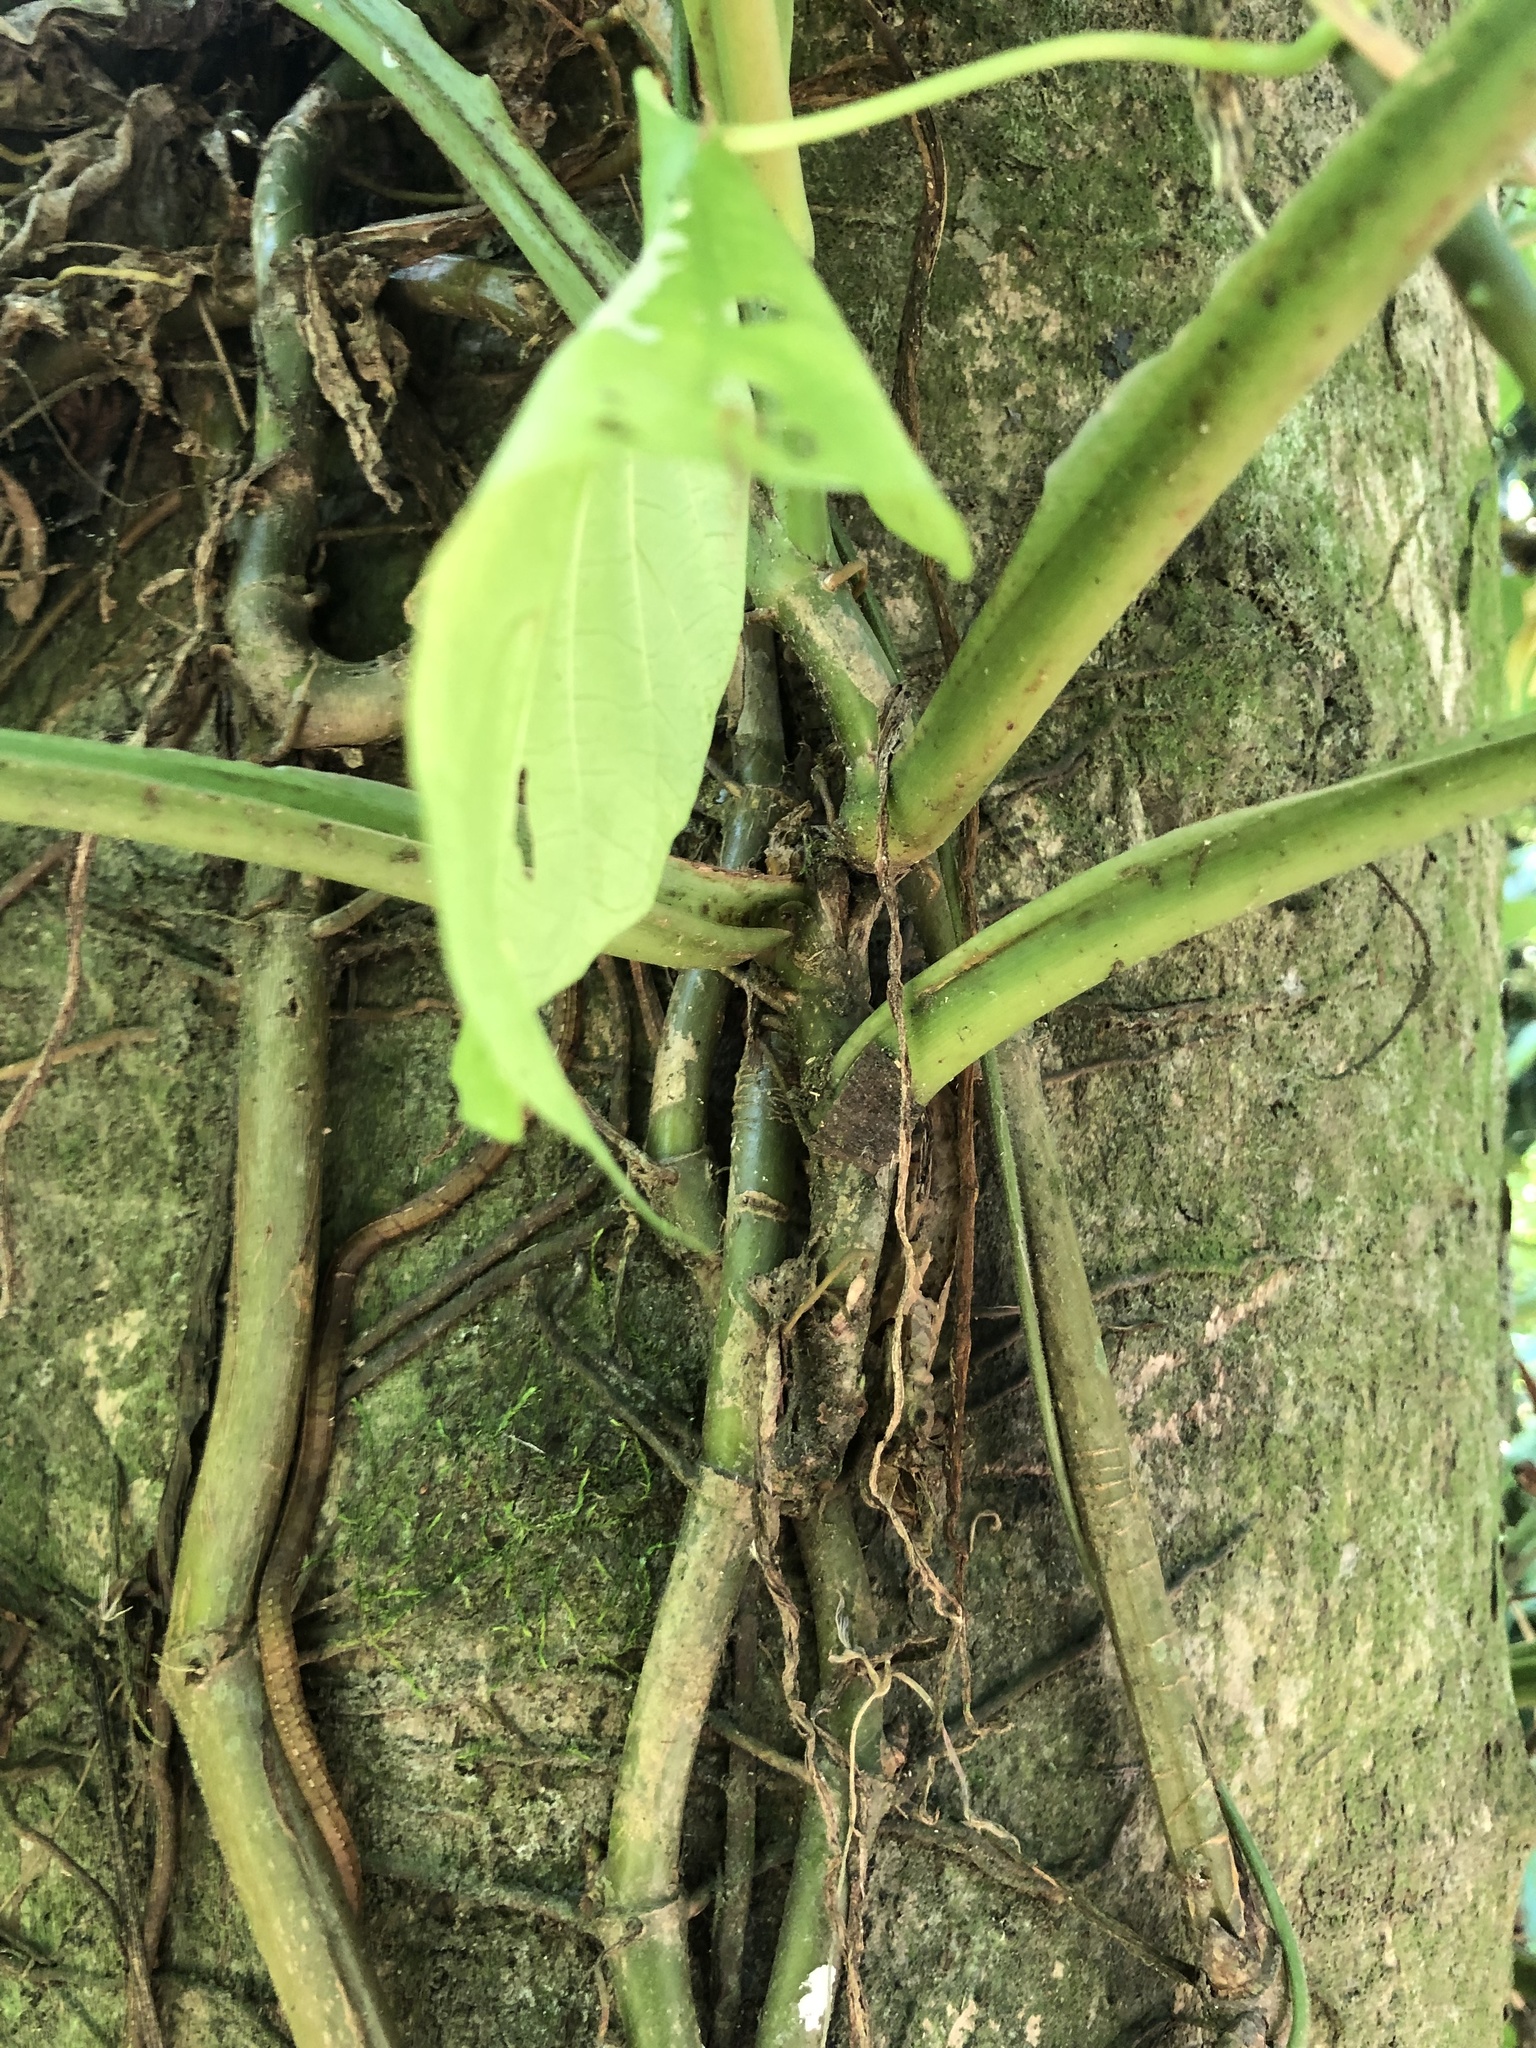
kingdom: Plantae
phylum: Tracheophyta
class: Liliopsida
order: Alismatales
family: Araceae
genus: Syngonium
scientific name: Syngonium podophyllum
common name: American evergreen
